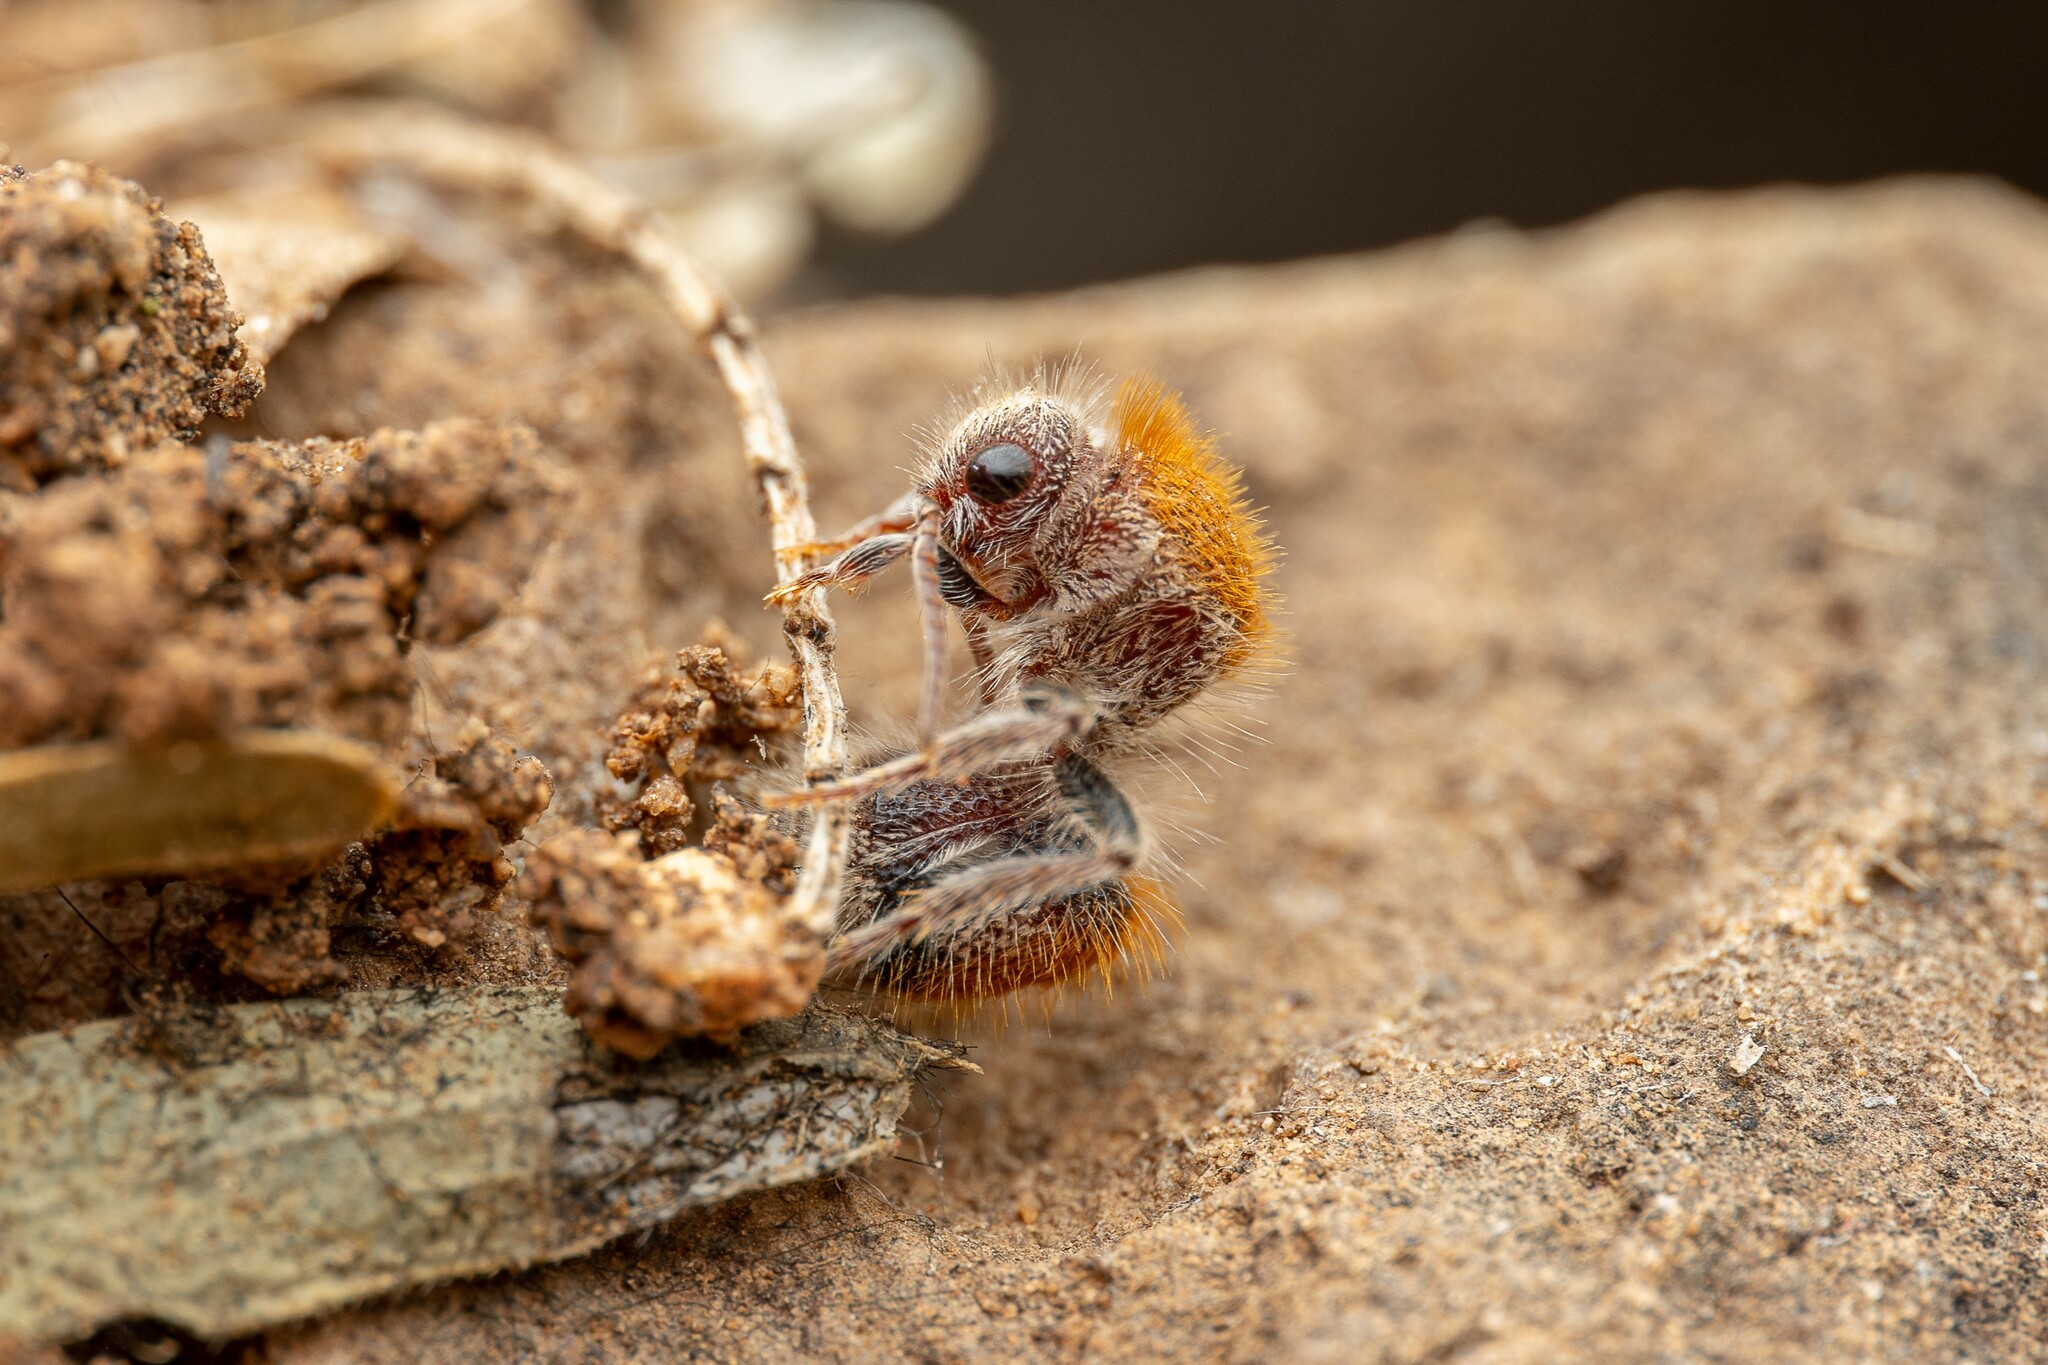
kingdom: Animalia
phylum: Arthropoda
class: Insecta
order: Hymenoptera
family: Mutillidae
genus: Sphaeropthalma
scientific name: Sphaeropthalma
